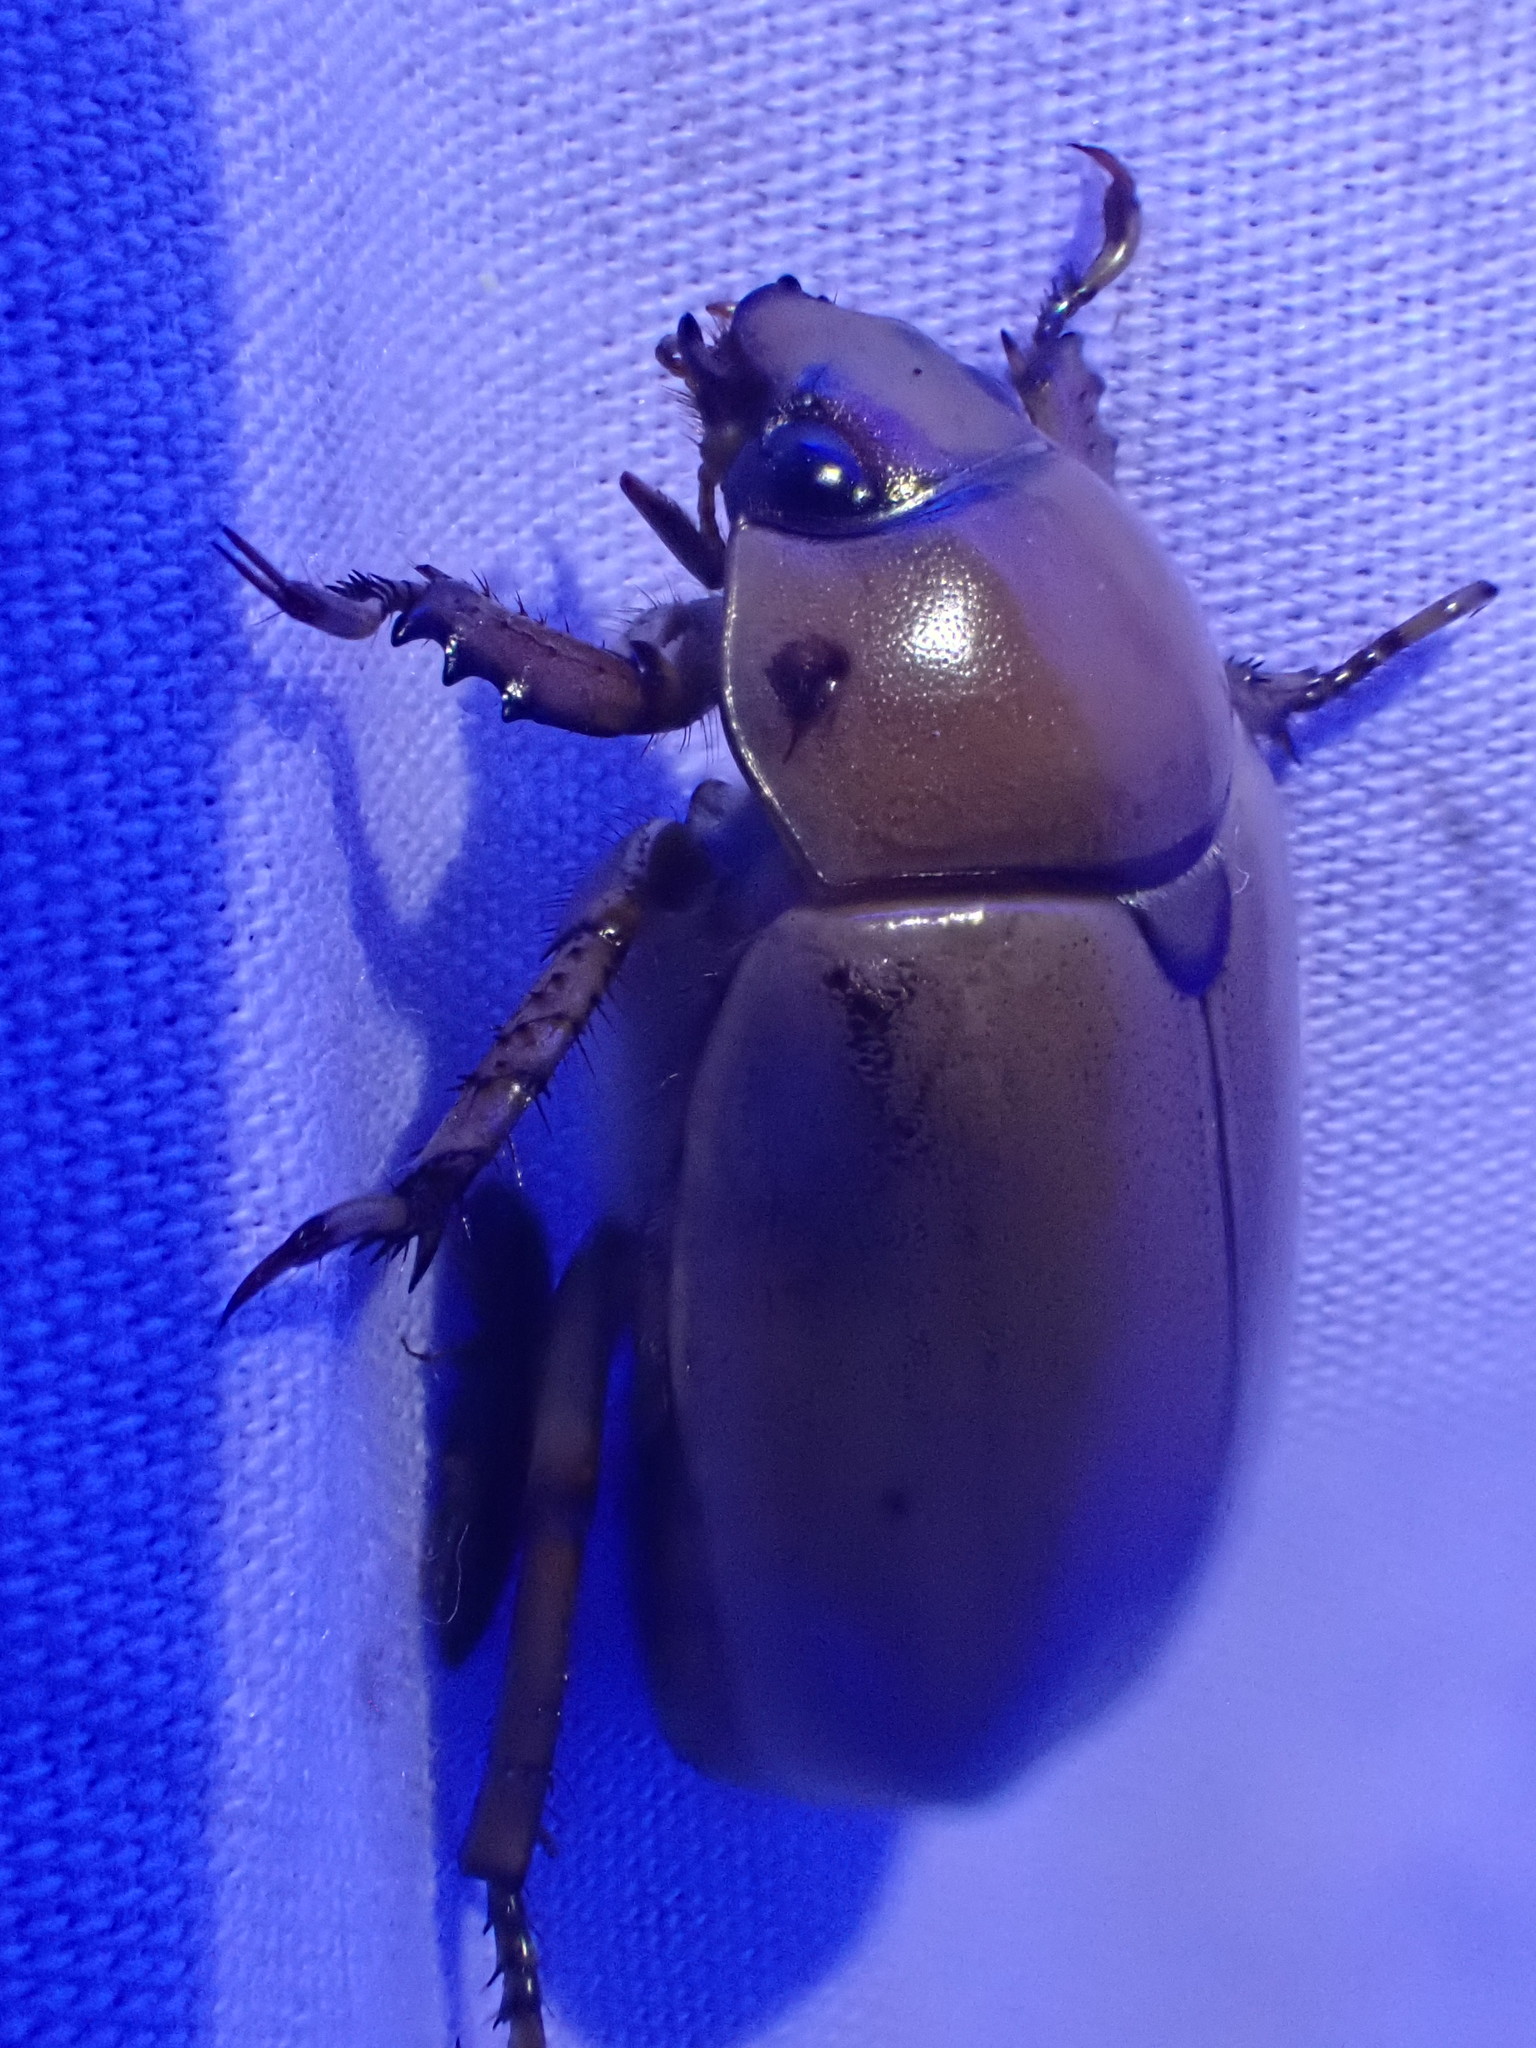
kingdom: Animalia
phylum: Arthropoda
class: Insecta
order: Coleoptera
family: Scarabaeidae
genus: Pelidnota
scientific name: Pelidnota punctata
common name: Grapevine beetle
